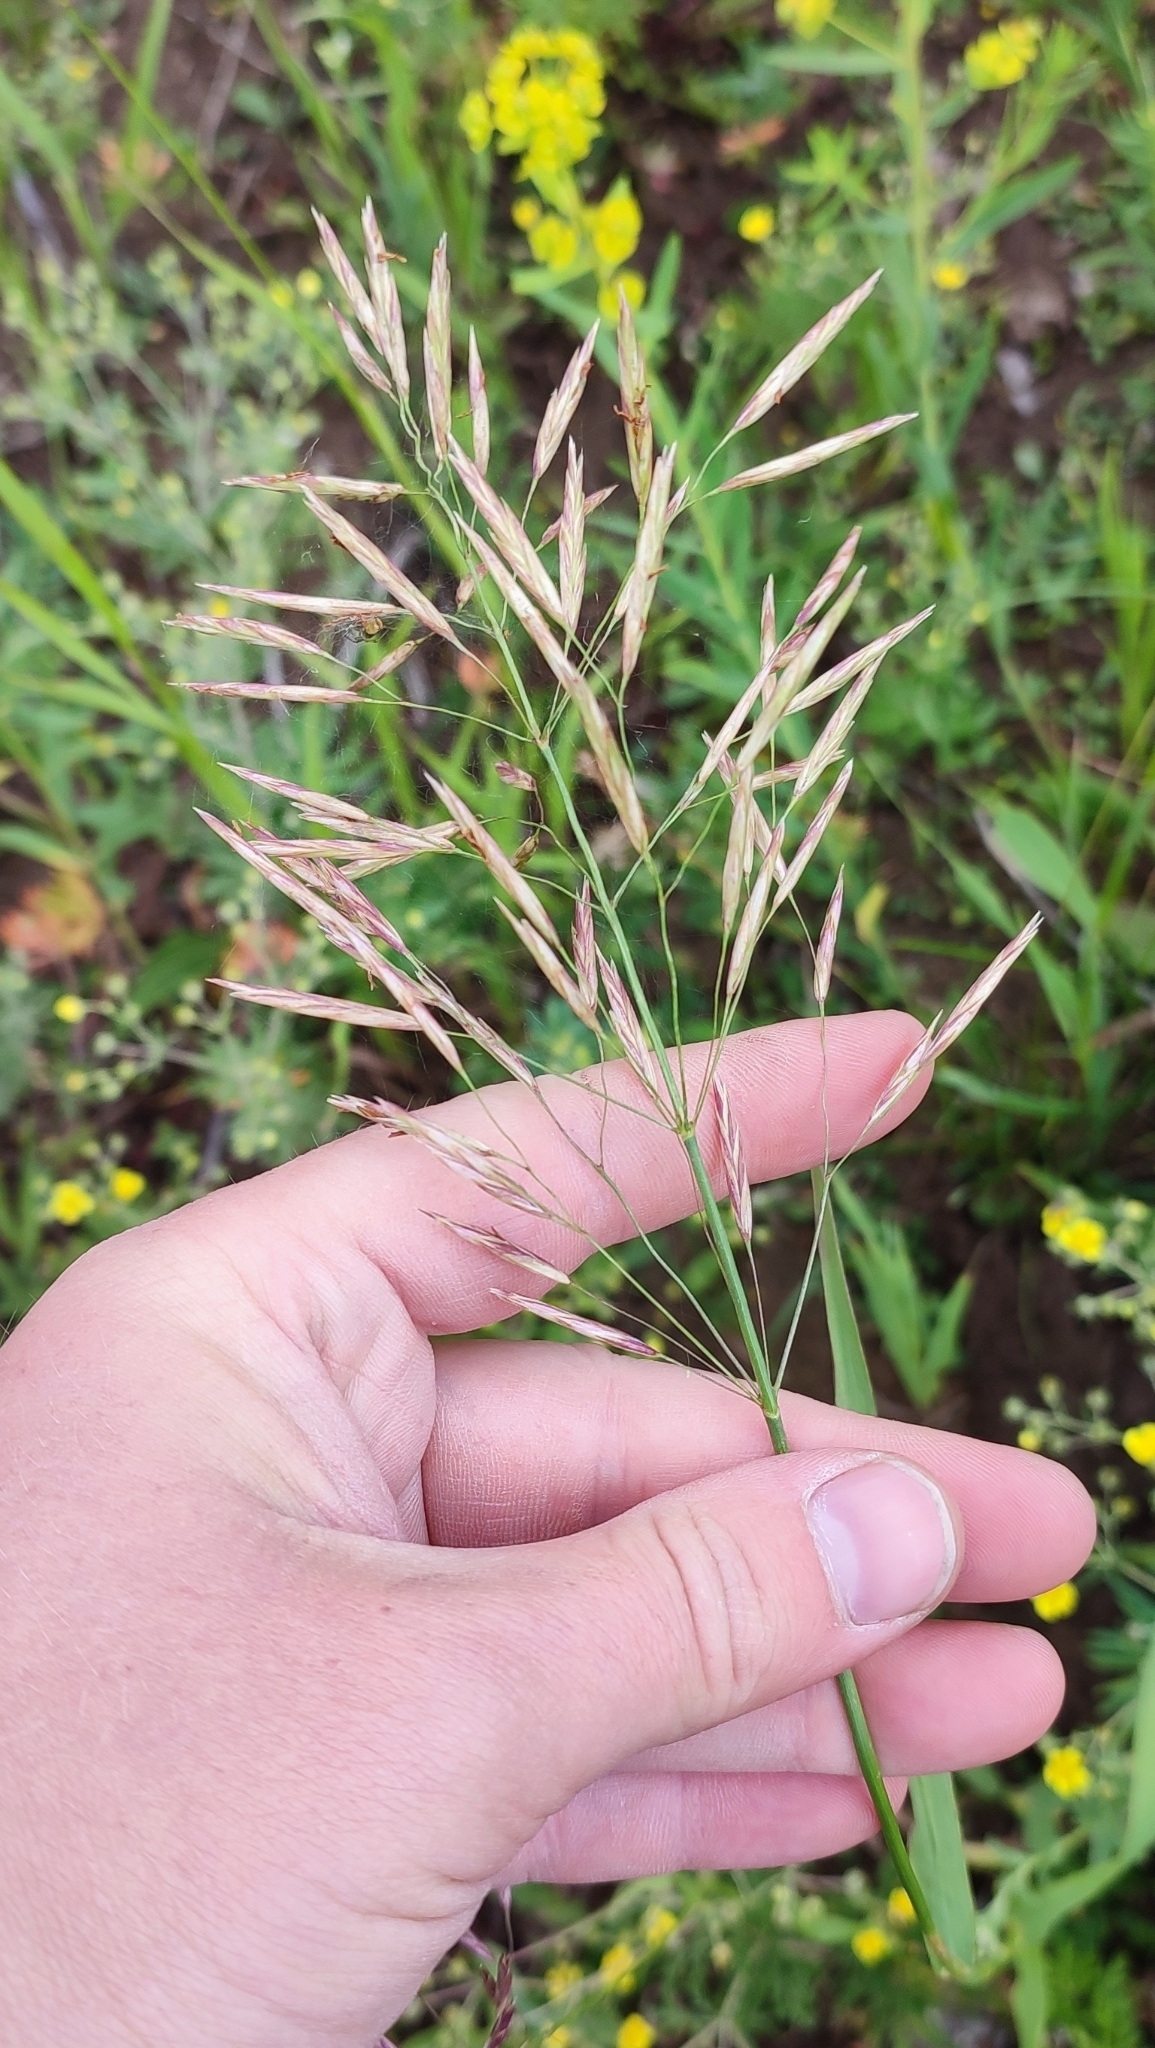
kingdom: Plantae
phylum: Tracheophyta
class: Liliopsida
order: Poales
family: Poaceae
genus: Bromus
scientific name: Bromus inermis
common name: Smooth brome
